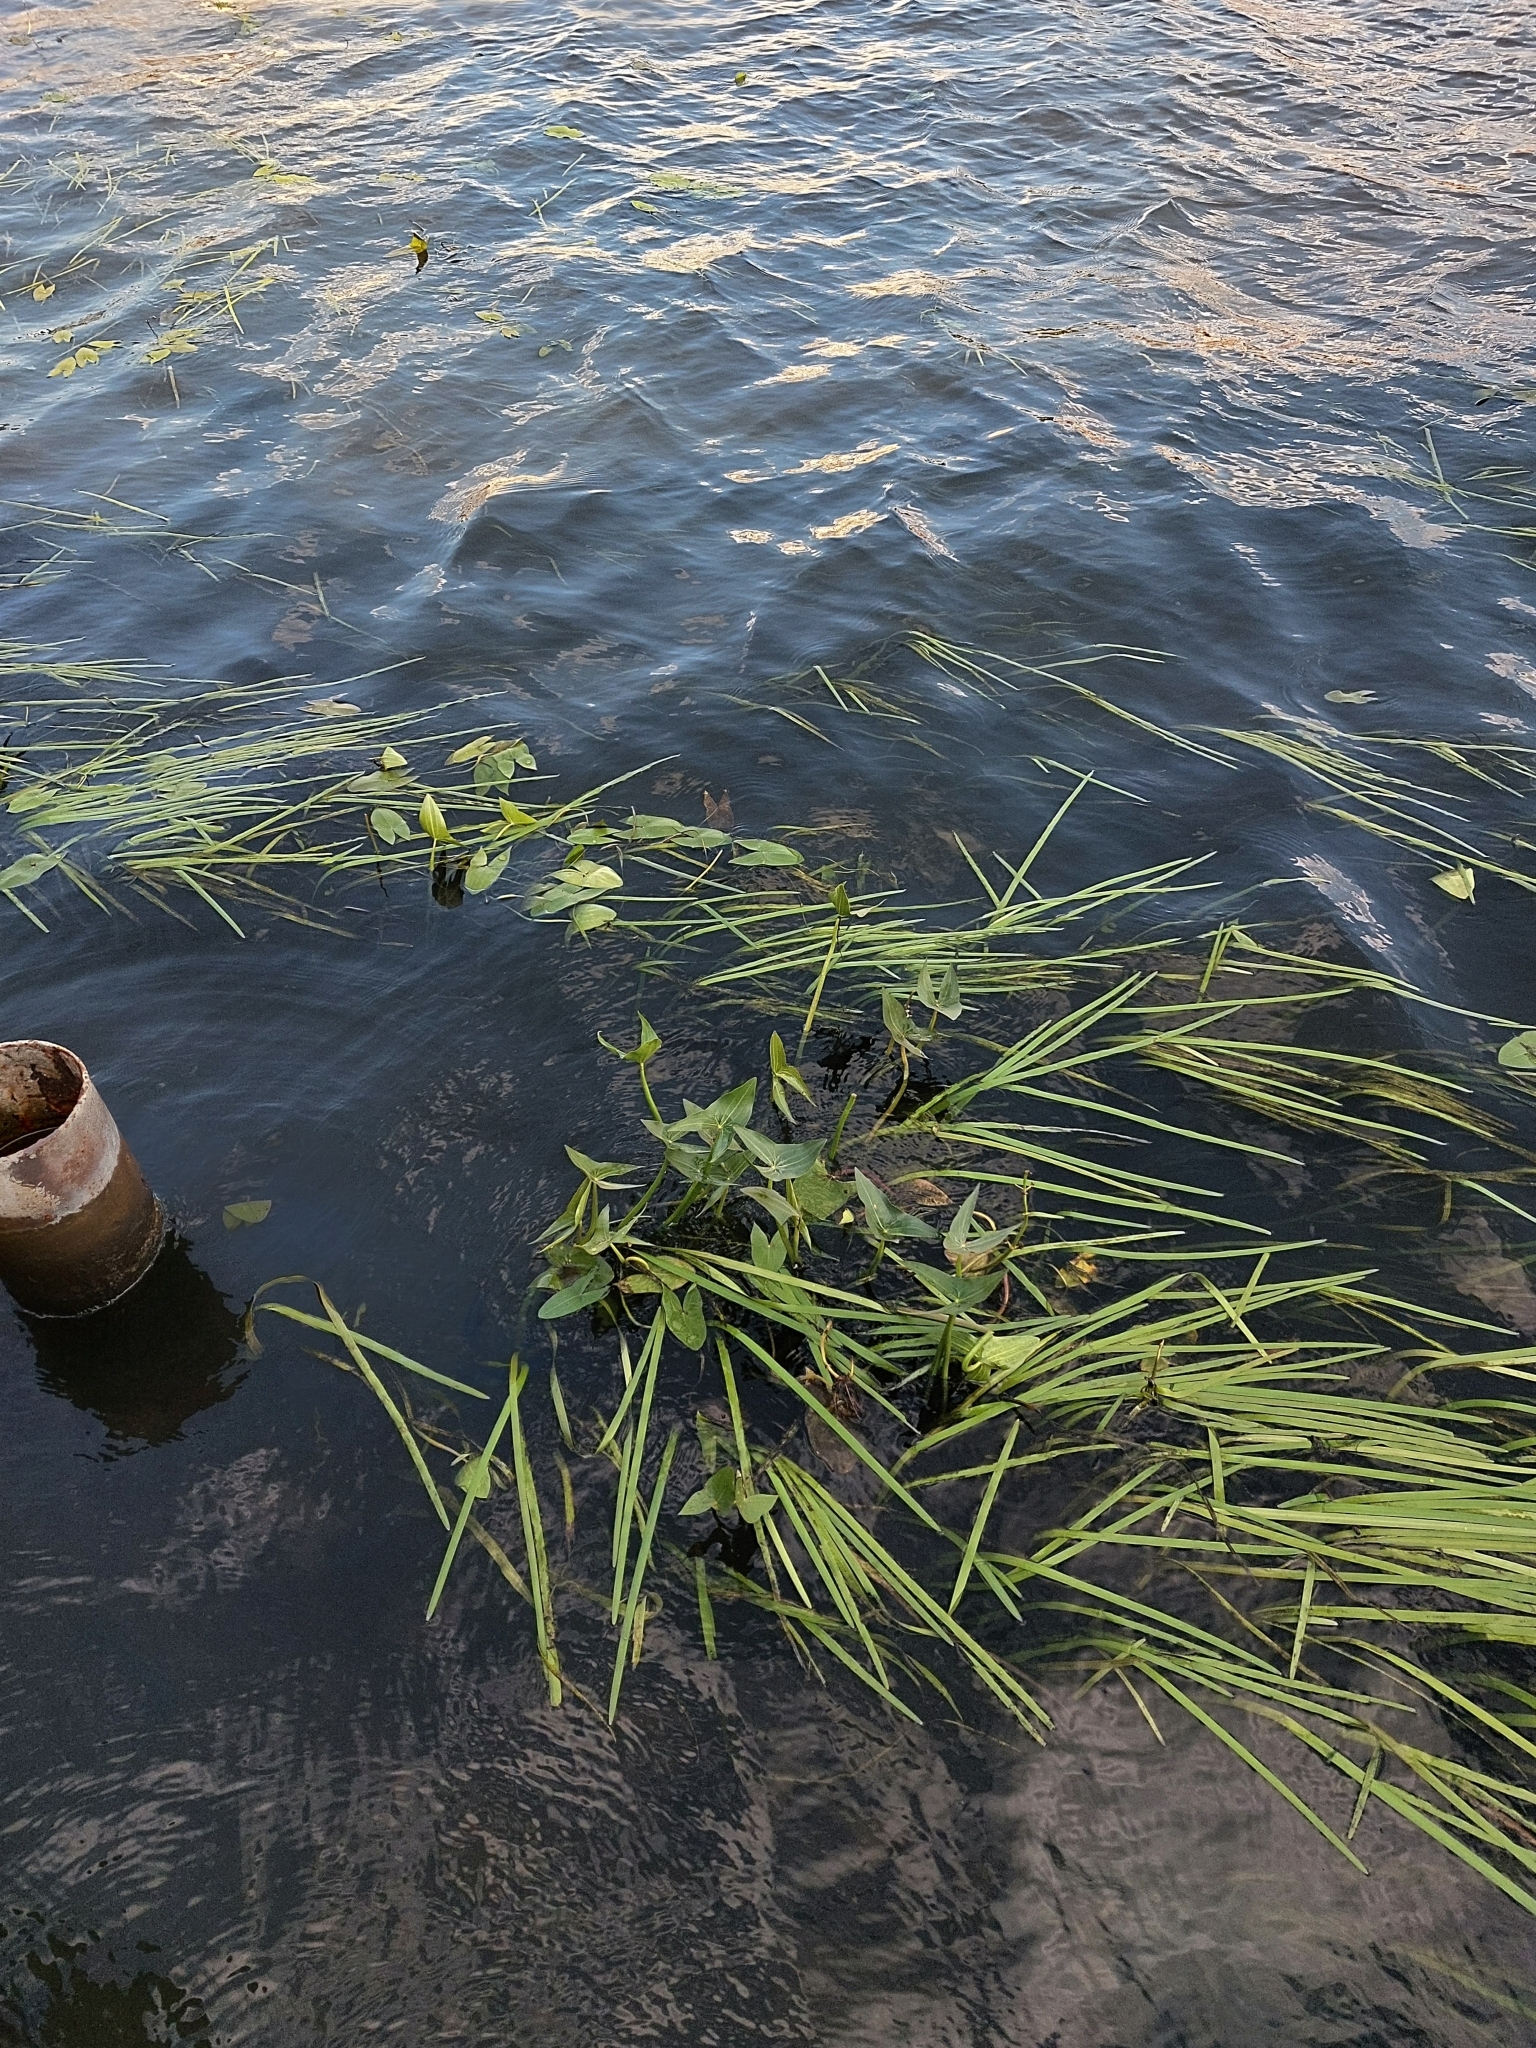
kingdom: Plantae
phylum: Tracheophyta
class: Liliopsida
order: Alismatales
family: Alismataceae
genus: Sagittaria
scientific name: Sagittaria sagittifolia
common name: Arrowhead
